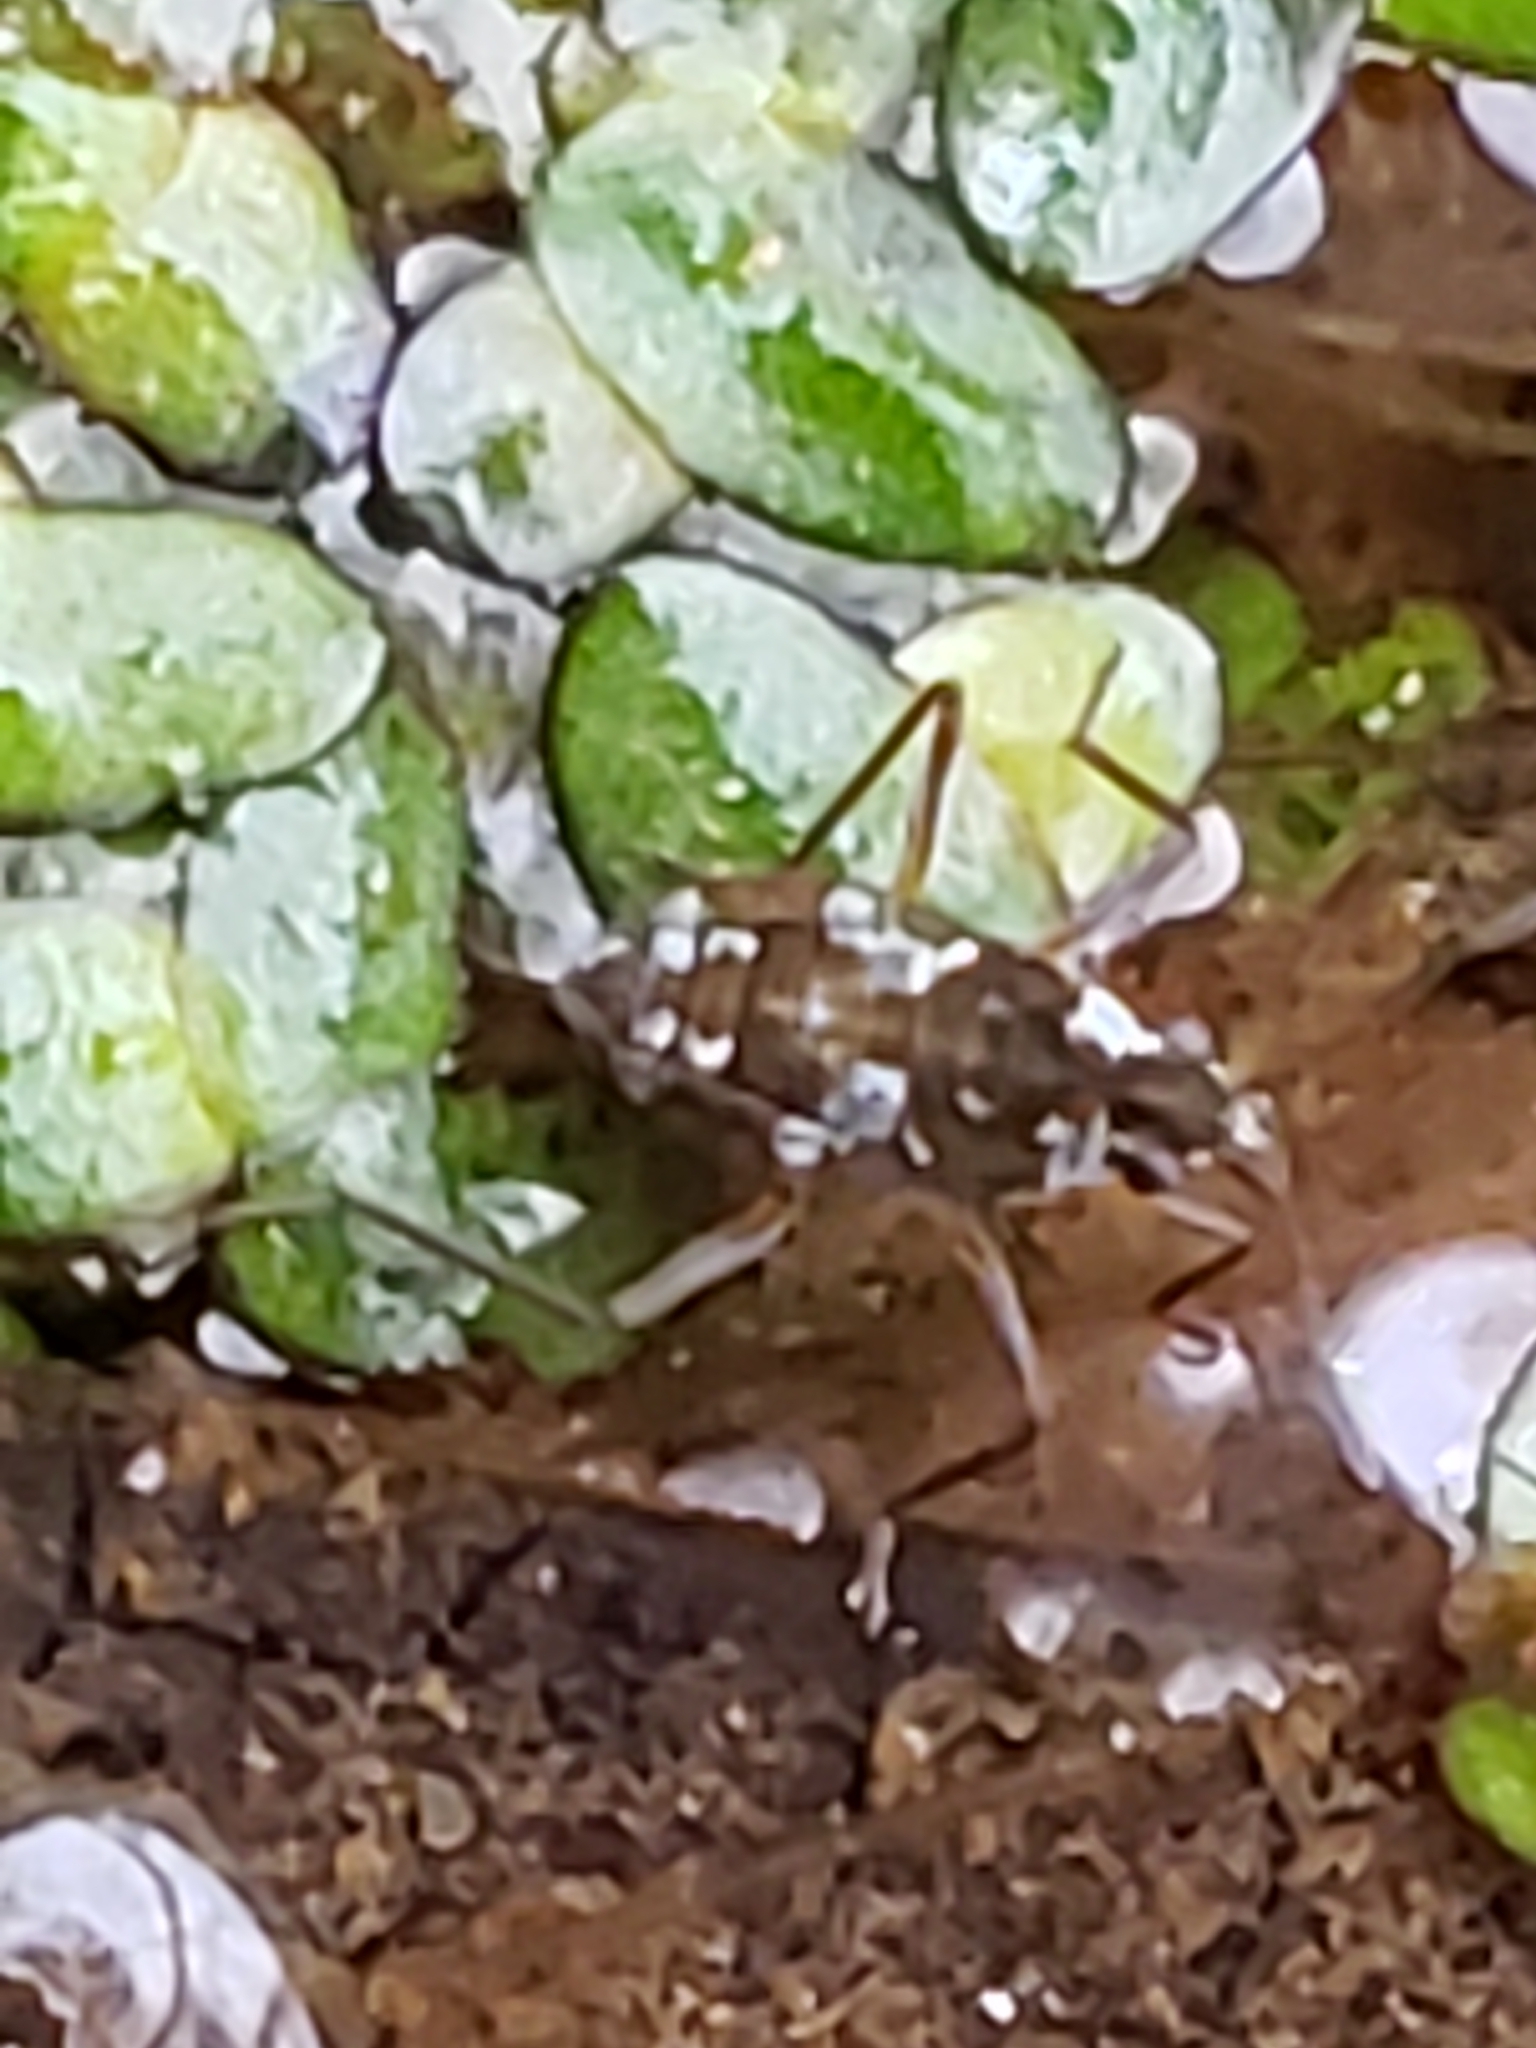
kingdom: Animalia
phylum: Arthropoda
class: Insecta
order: Hemiptera
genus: Kirkaldya
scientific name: Kirkaldya
